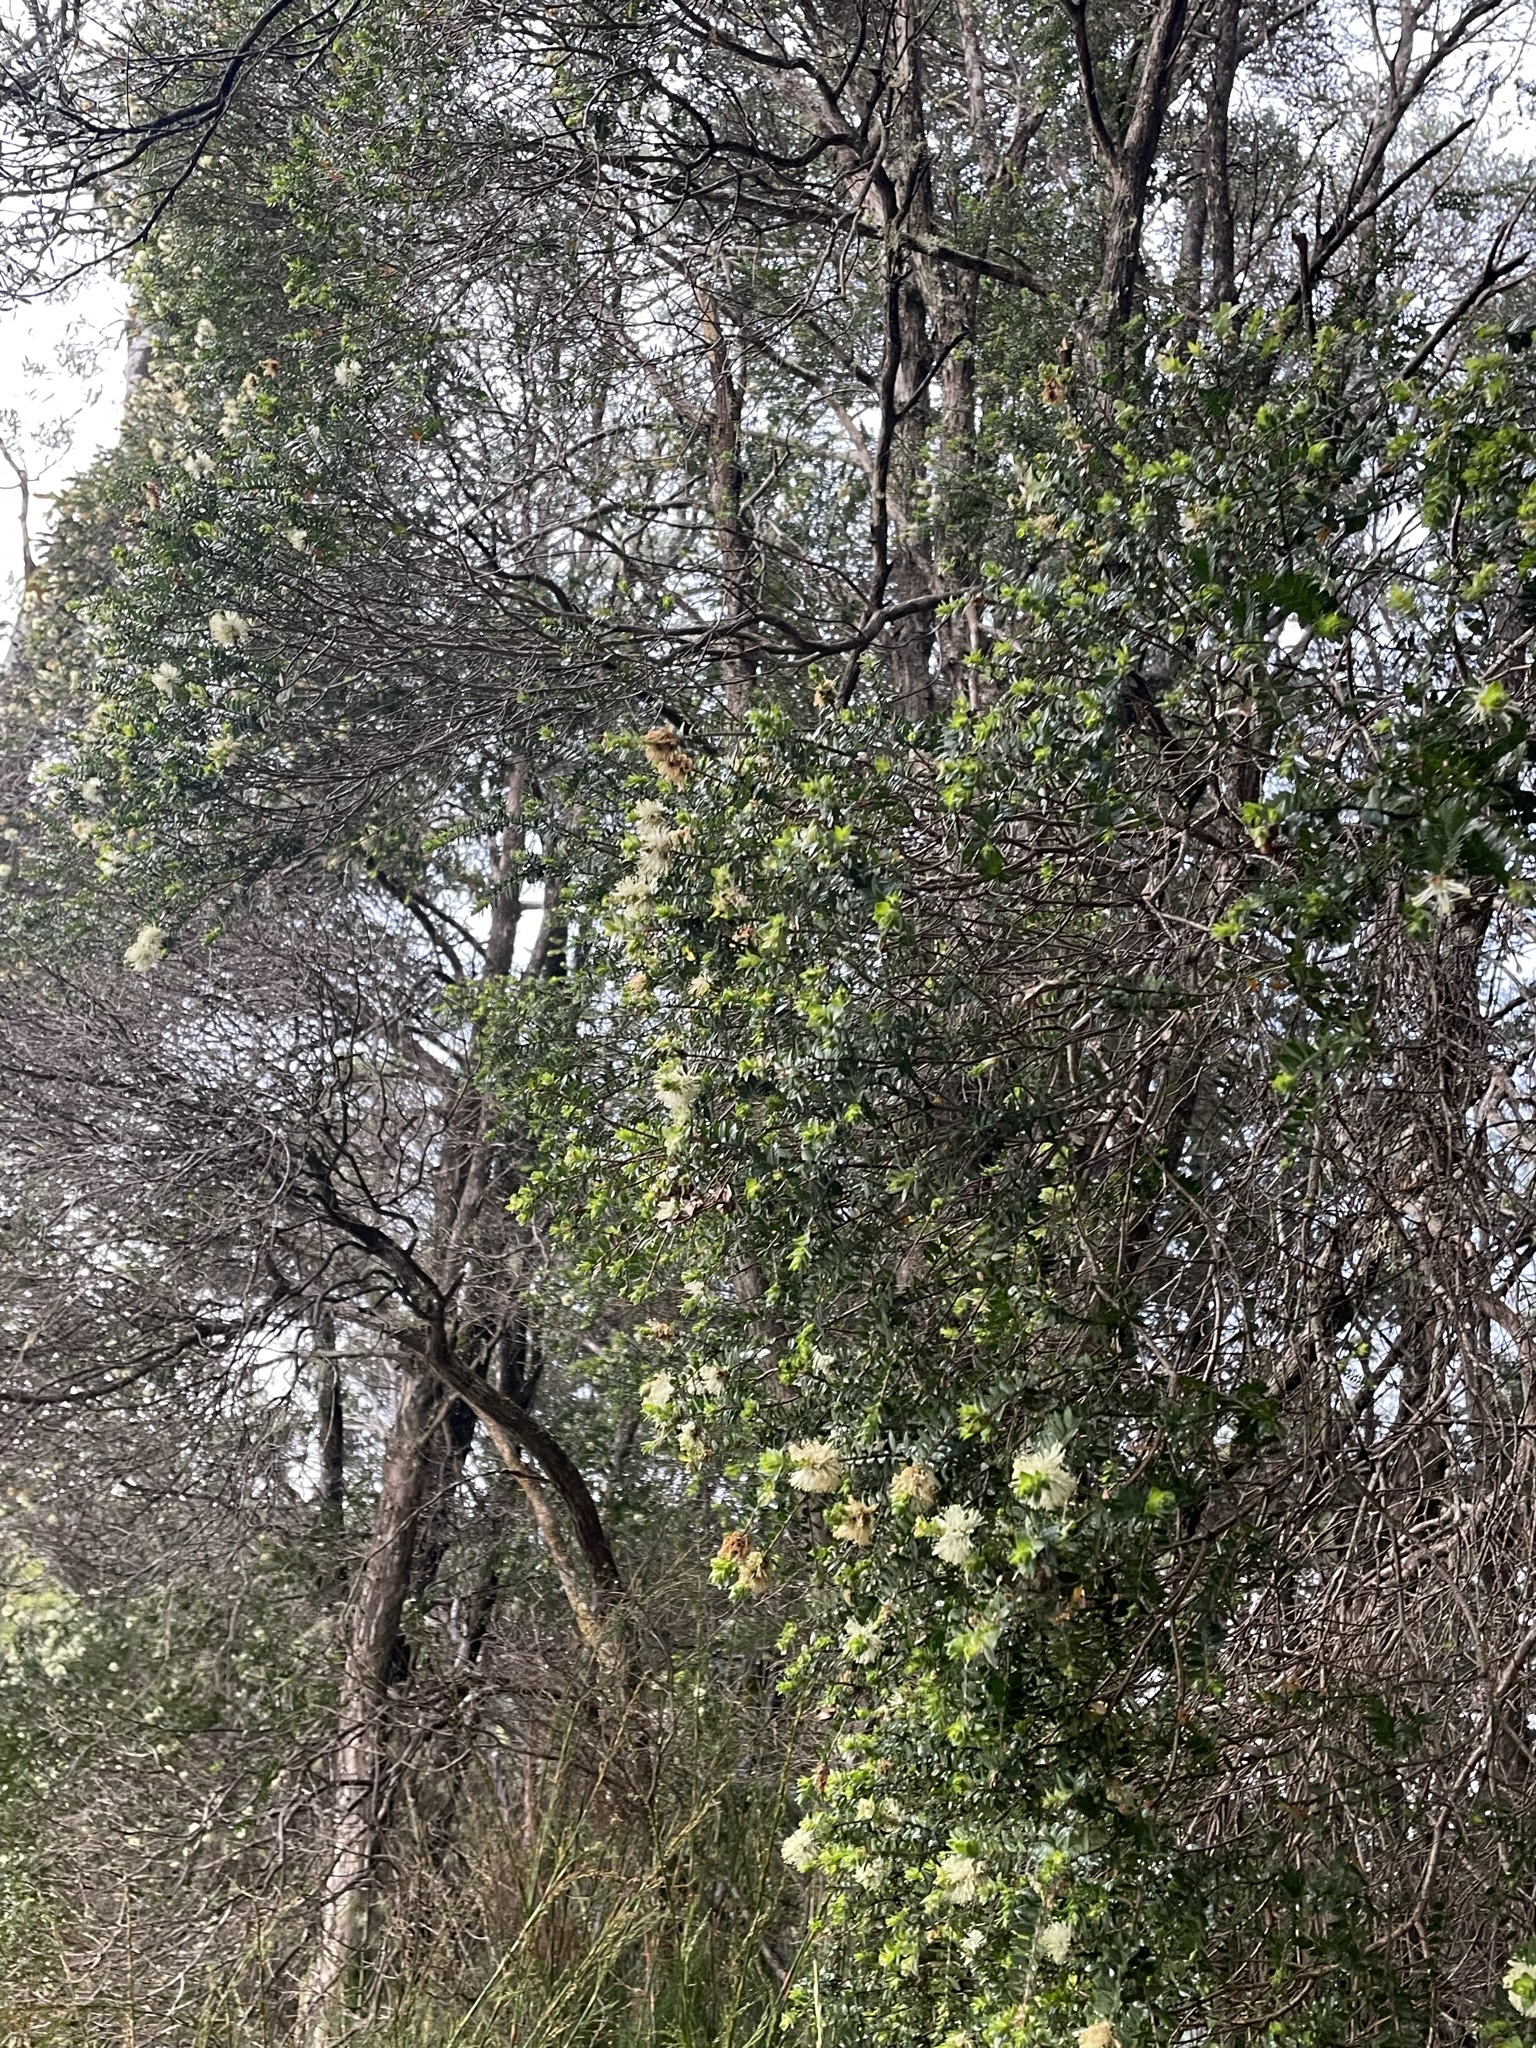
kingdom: Plantae
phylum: Tracheophyta
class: Magnoliopsida
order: Myrtales
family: Myrtaceae
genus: Melaleuca
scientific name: Melaleuca squarrosa
